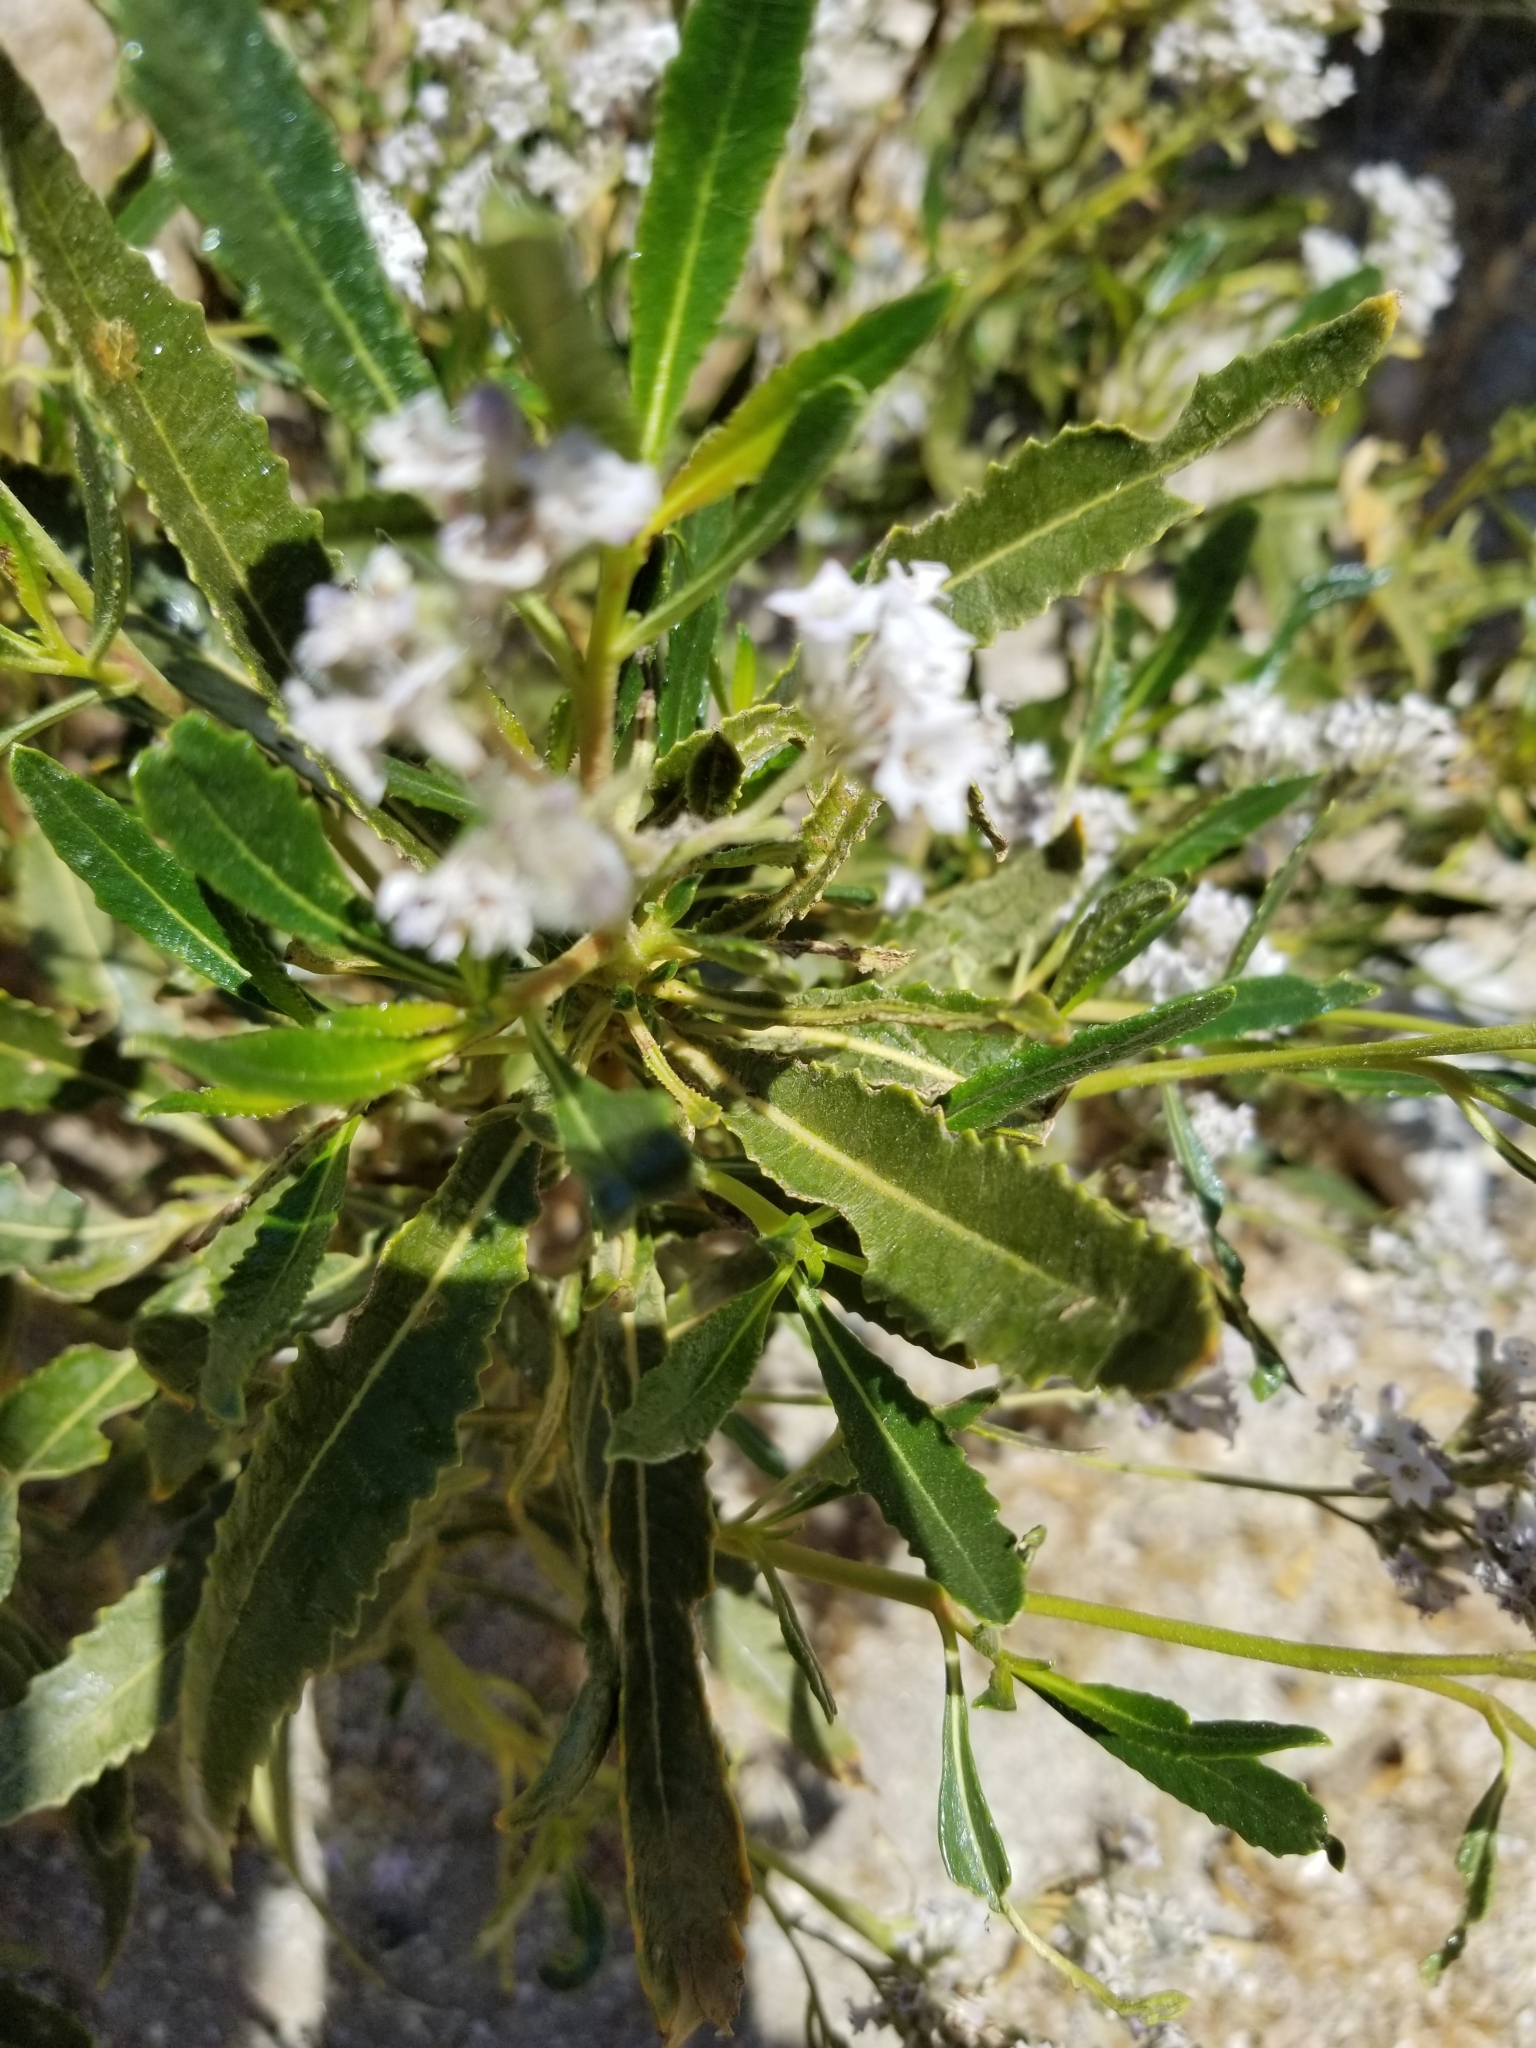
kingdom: Plantae
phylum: Tracheophyta
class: Magnoliopsida
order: Boraginales
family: Namaceae
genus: Eriodictyon
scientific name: Eriodictyon trichocalyx
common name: Hairy yerba-santa
